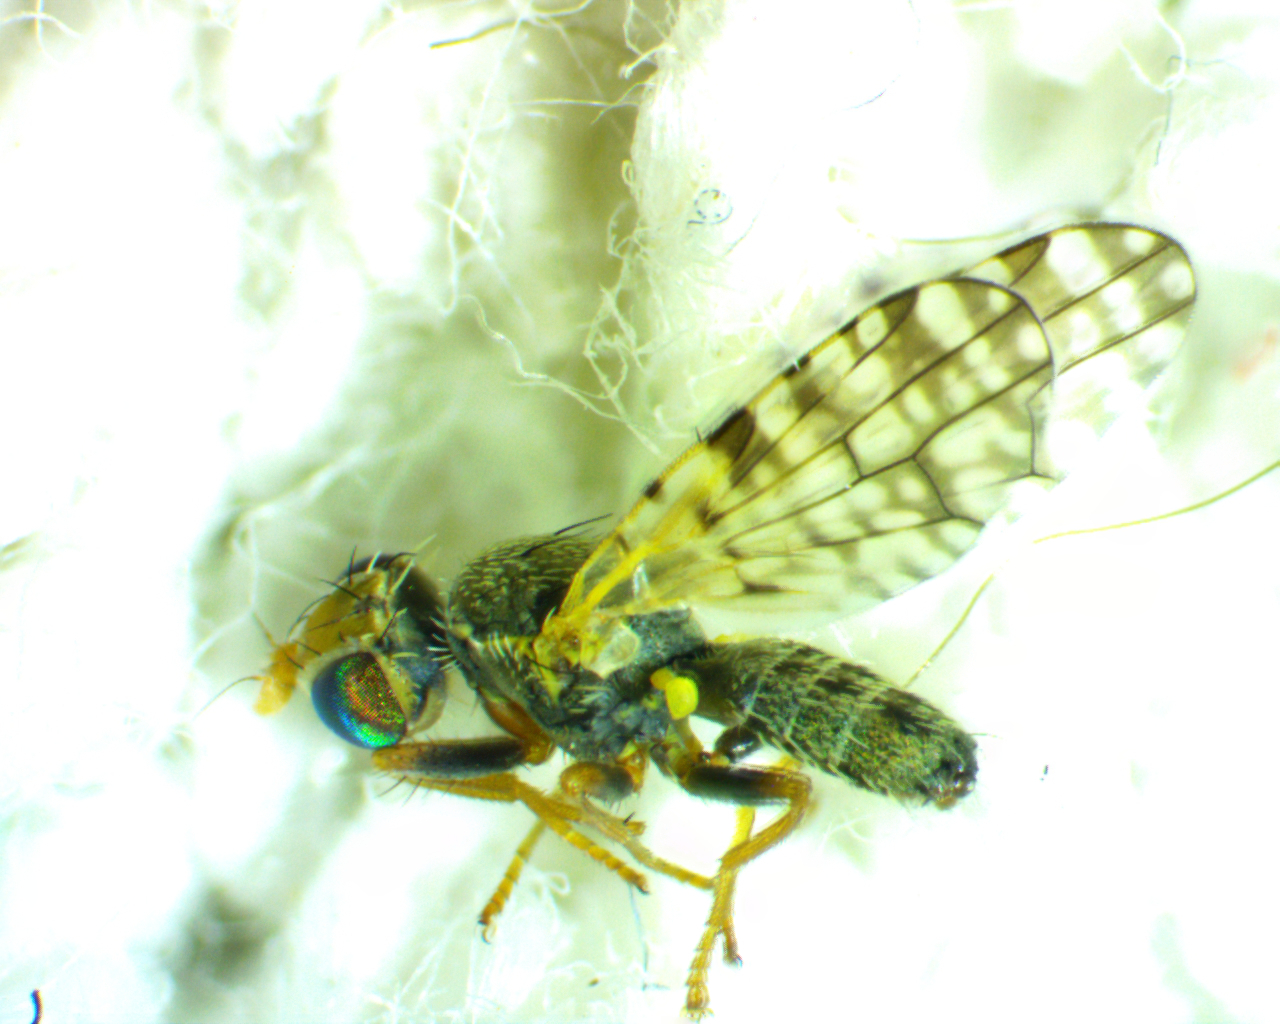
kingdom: Animalia
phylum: Arthropoda
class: Insecta
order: Diptera
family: Tephritidae
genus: Dioxyna
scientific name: Dioxyna picciola
